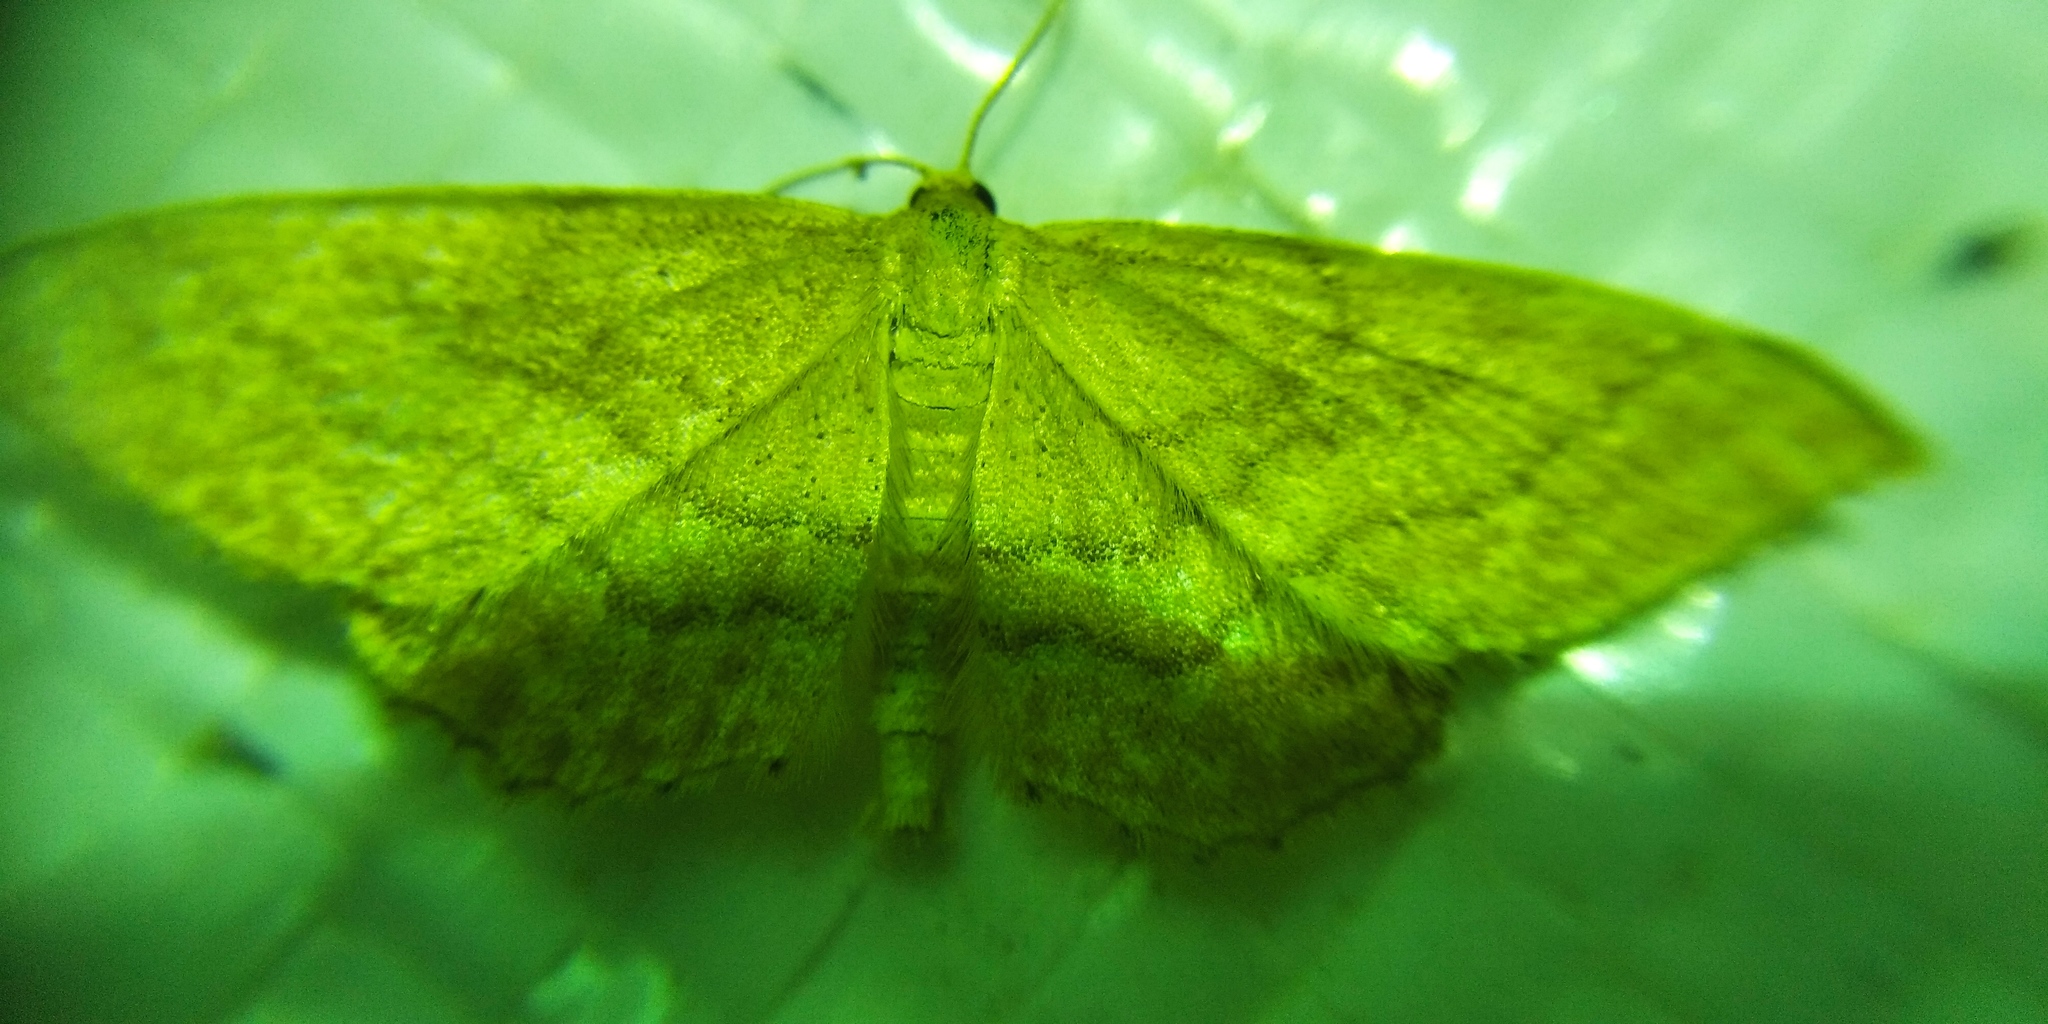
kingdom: Animalia
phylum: Arthropoda
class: Insecta
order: Lepidoptera
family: Geometridae
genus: Idaea
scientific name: Idaea ochrata
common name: Bright wave
